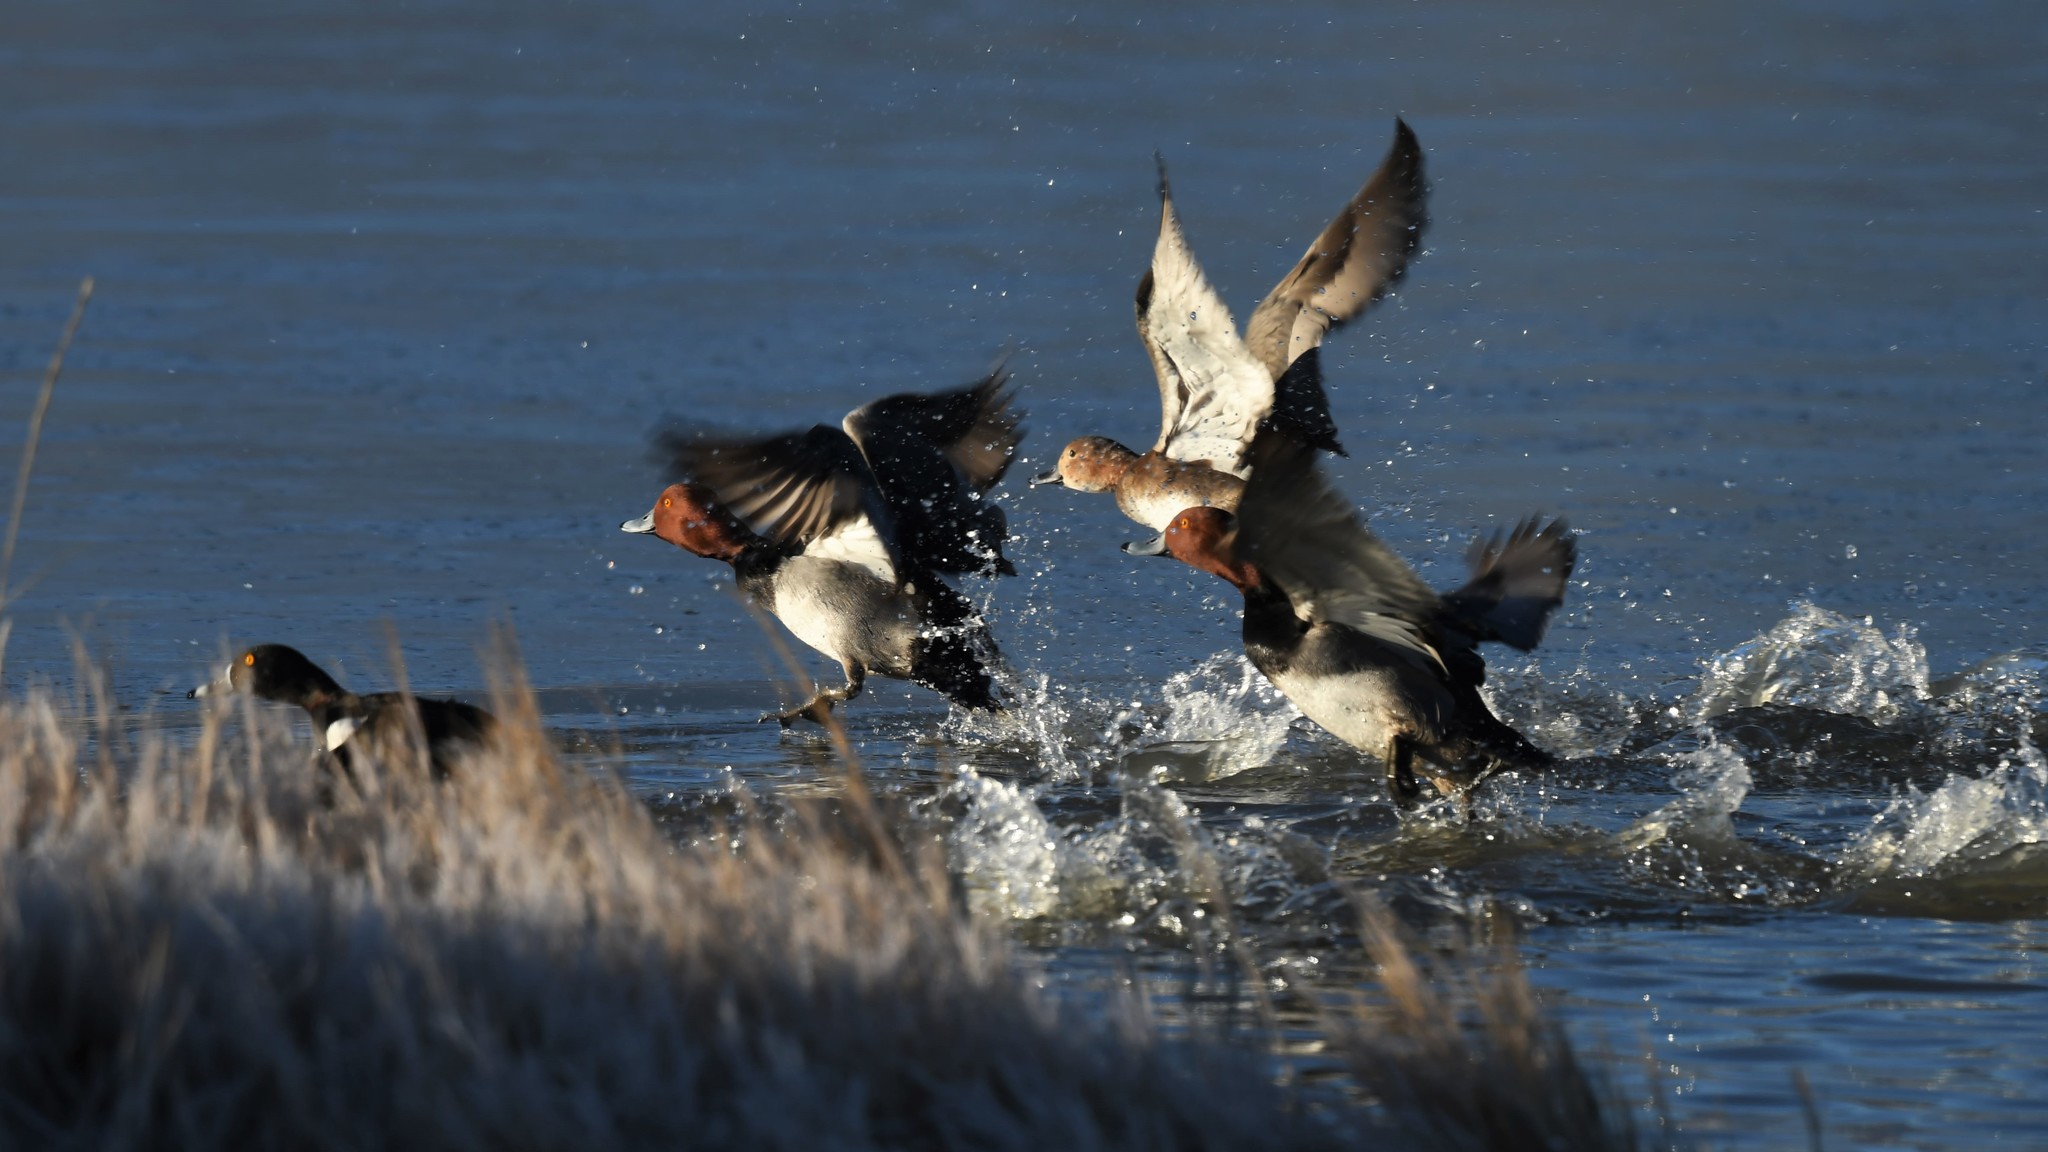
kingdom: Animalia
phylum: Chordata
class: Aves
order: Anseriformes
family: Anatidae
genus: Aythya
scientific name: Aythya americana
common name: Redhead
